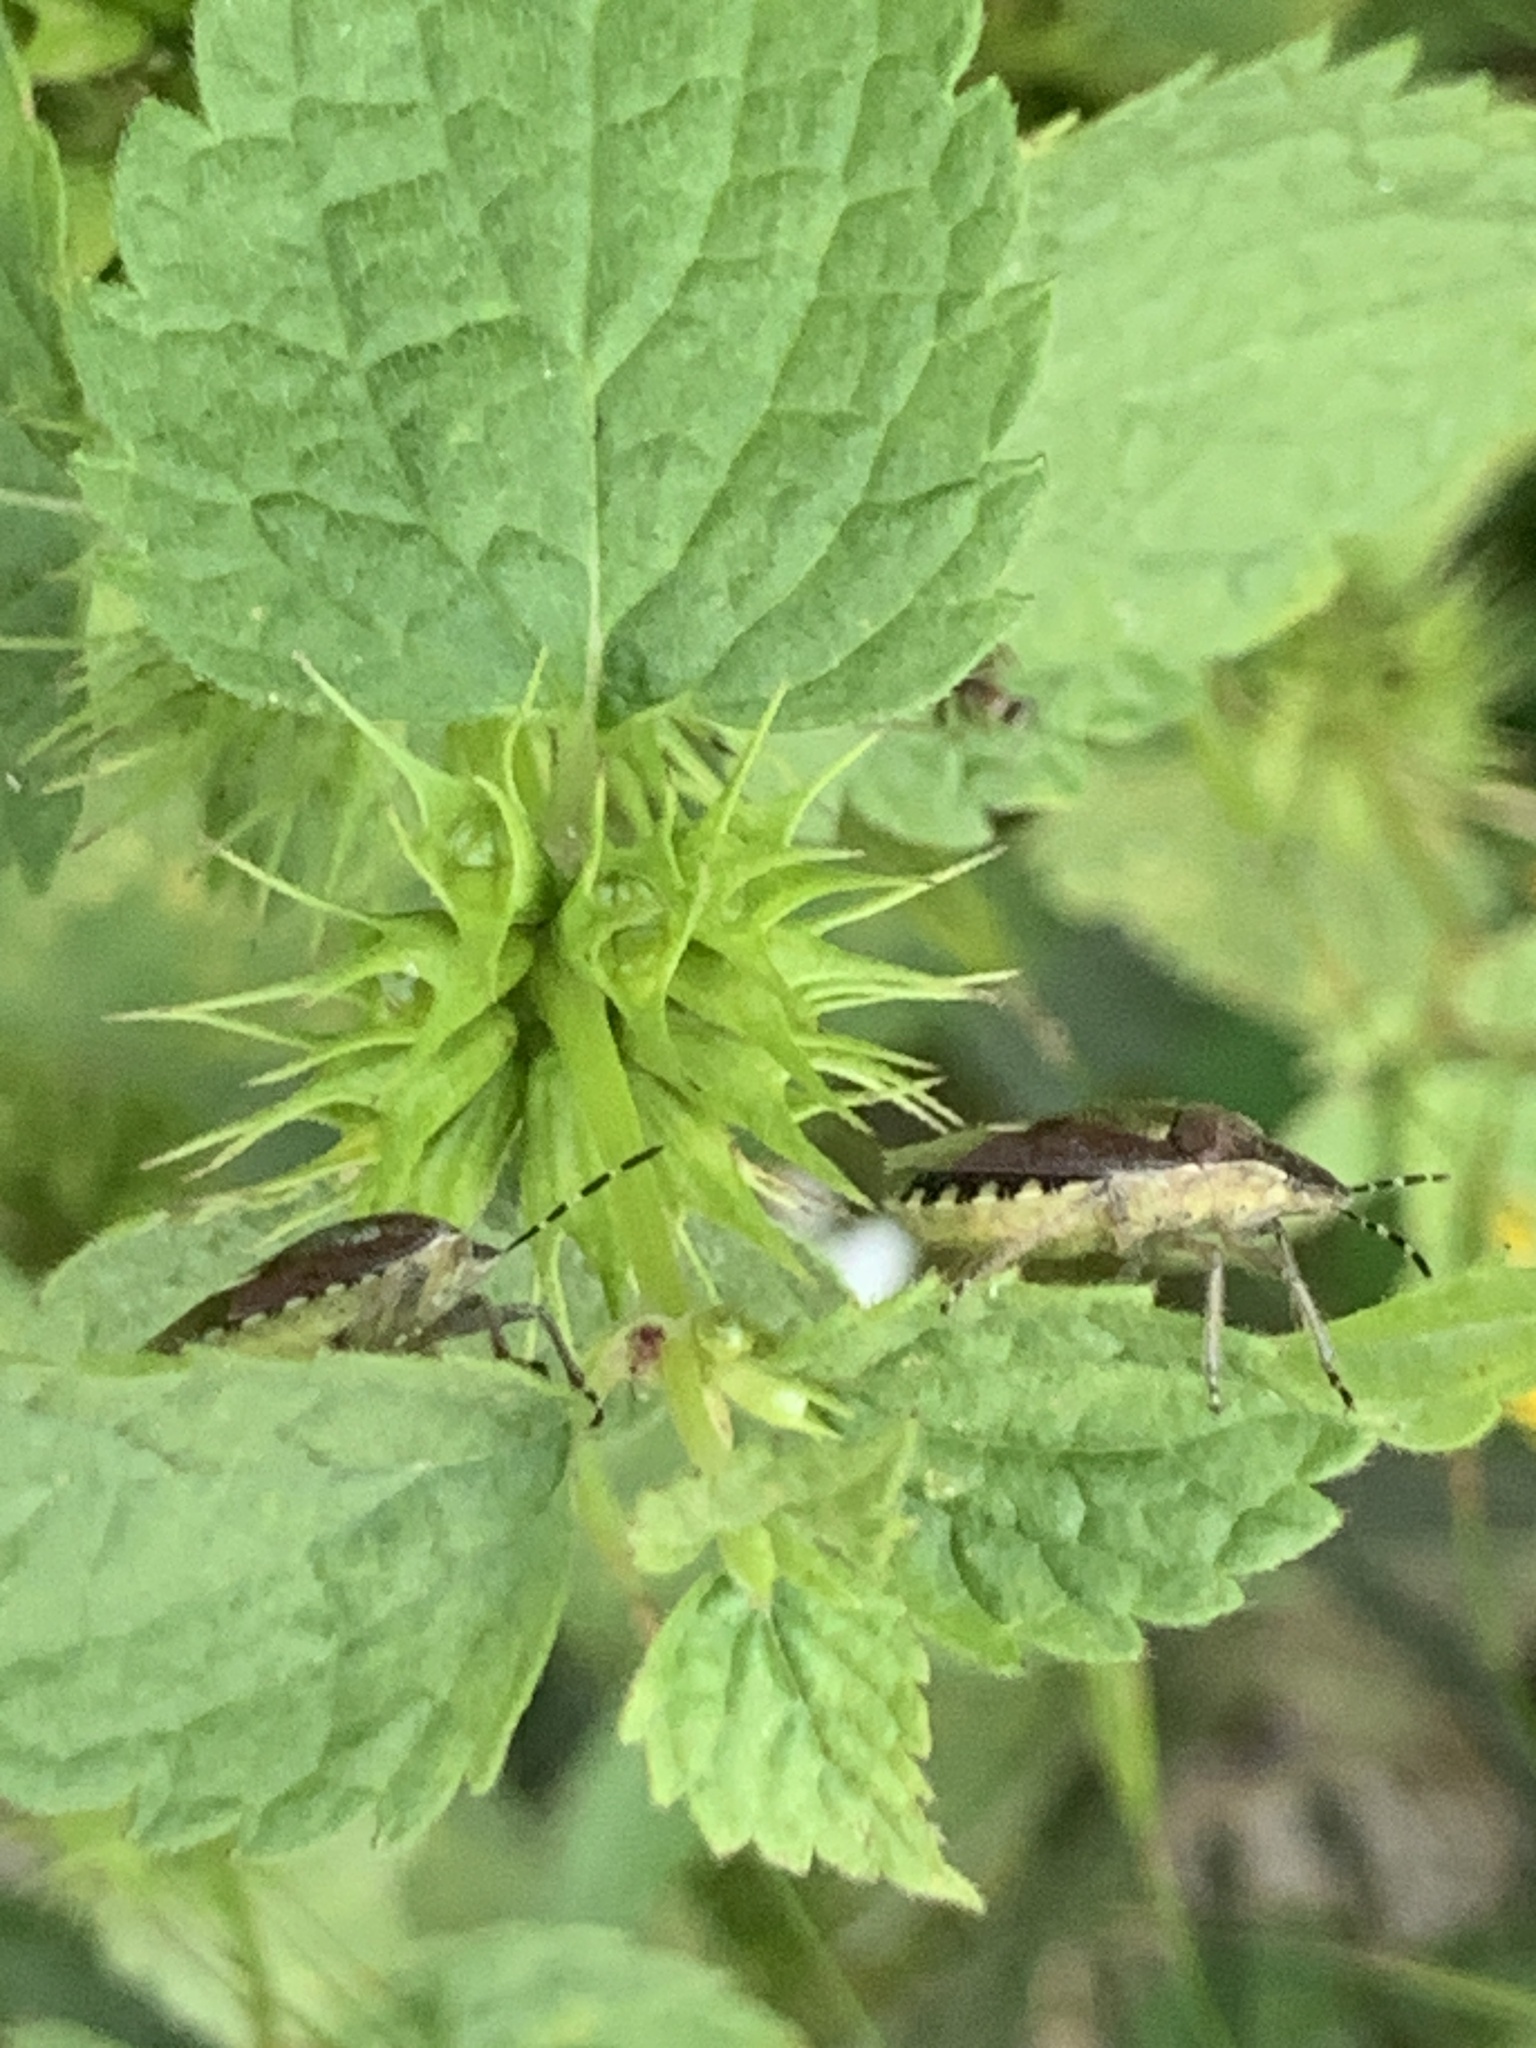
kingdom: Animalia
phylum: Arthropoda
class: Insecta
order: Hemiptera
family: Pentatomidae
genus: Dolycoris
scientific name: Dolycoris baccarum
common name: Sloe bug
